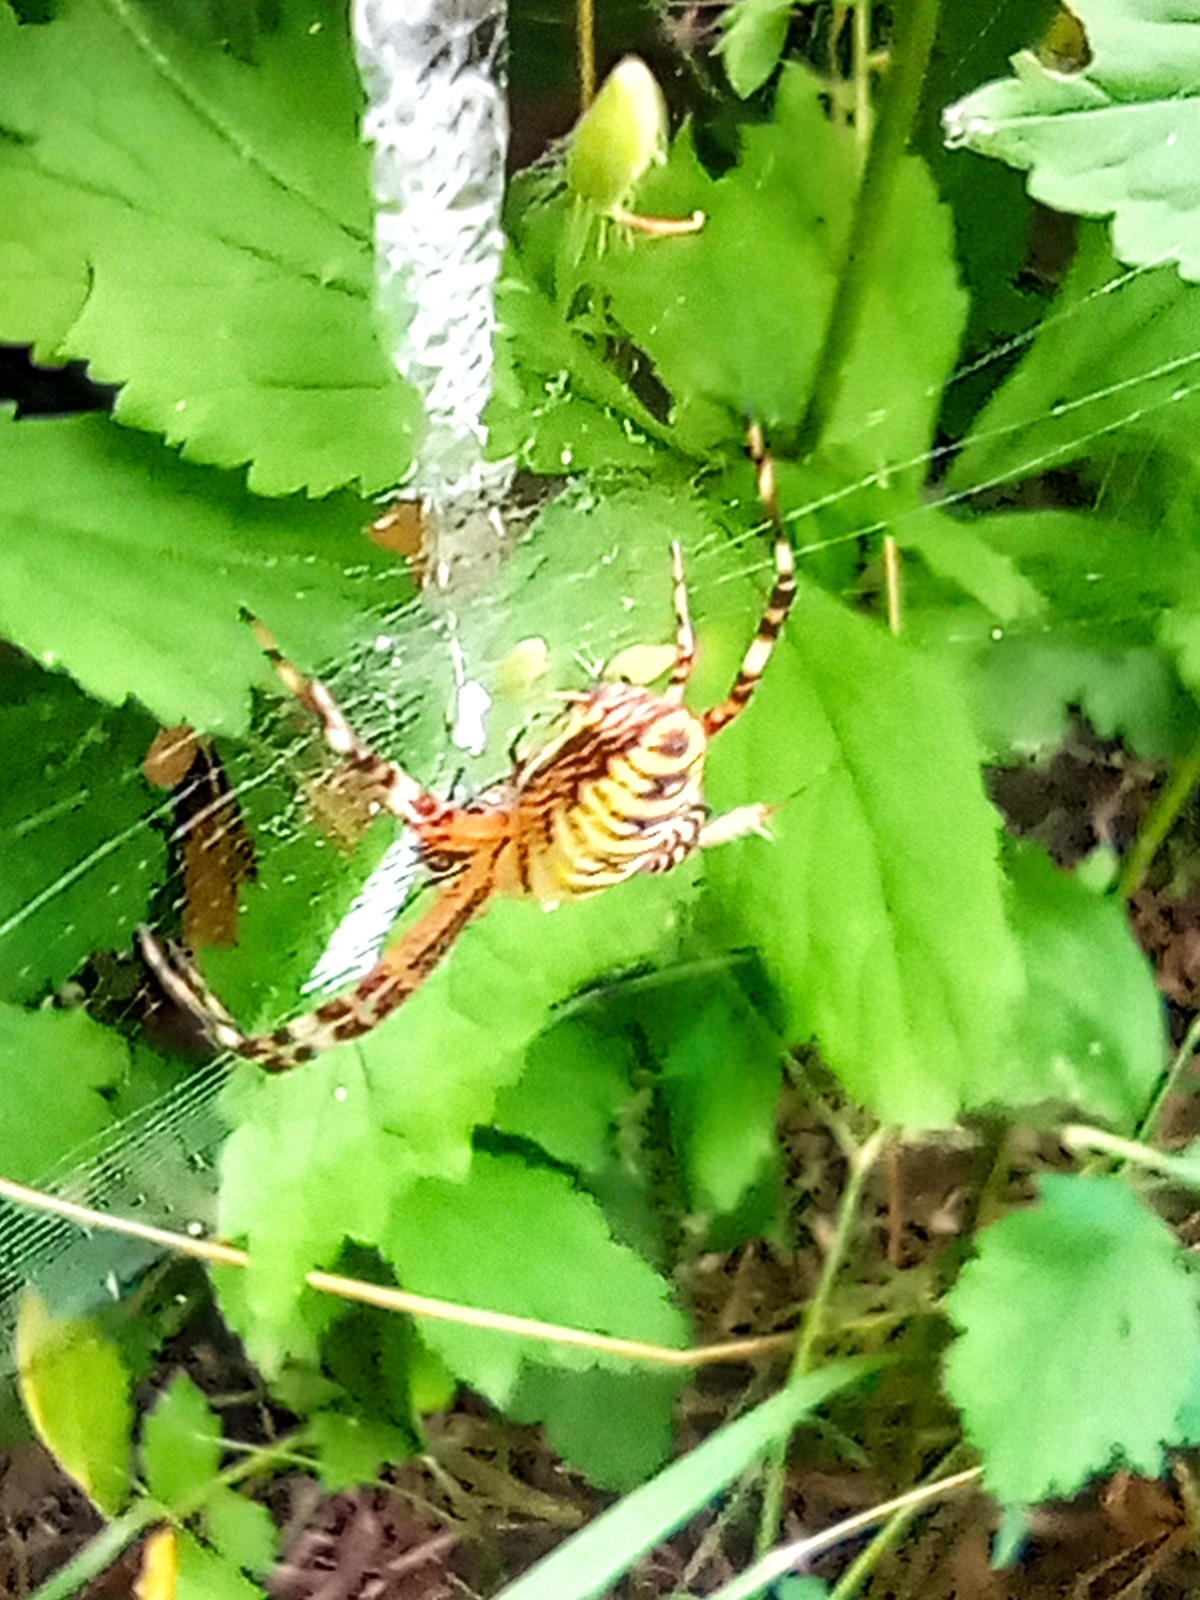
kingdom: Animalia
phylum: Arthropoda
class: Arachnida
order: Araneae
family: Araneidae
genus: Argiope
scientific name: Argiope bruennichi
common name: Wasp spider
